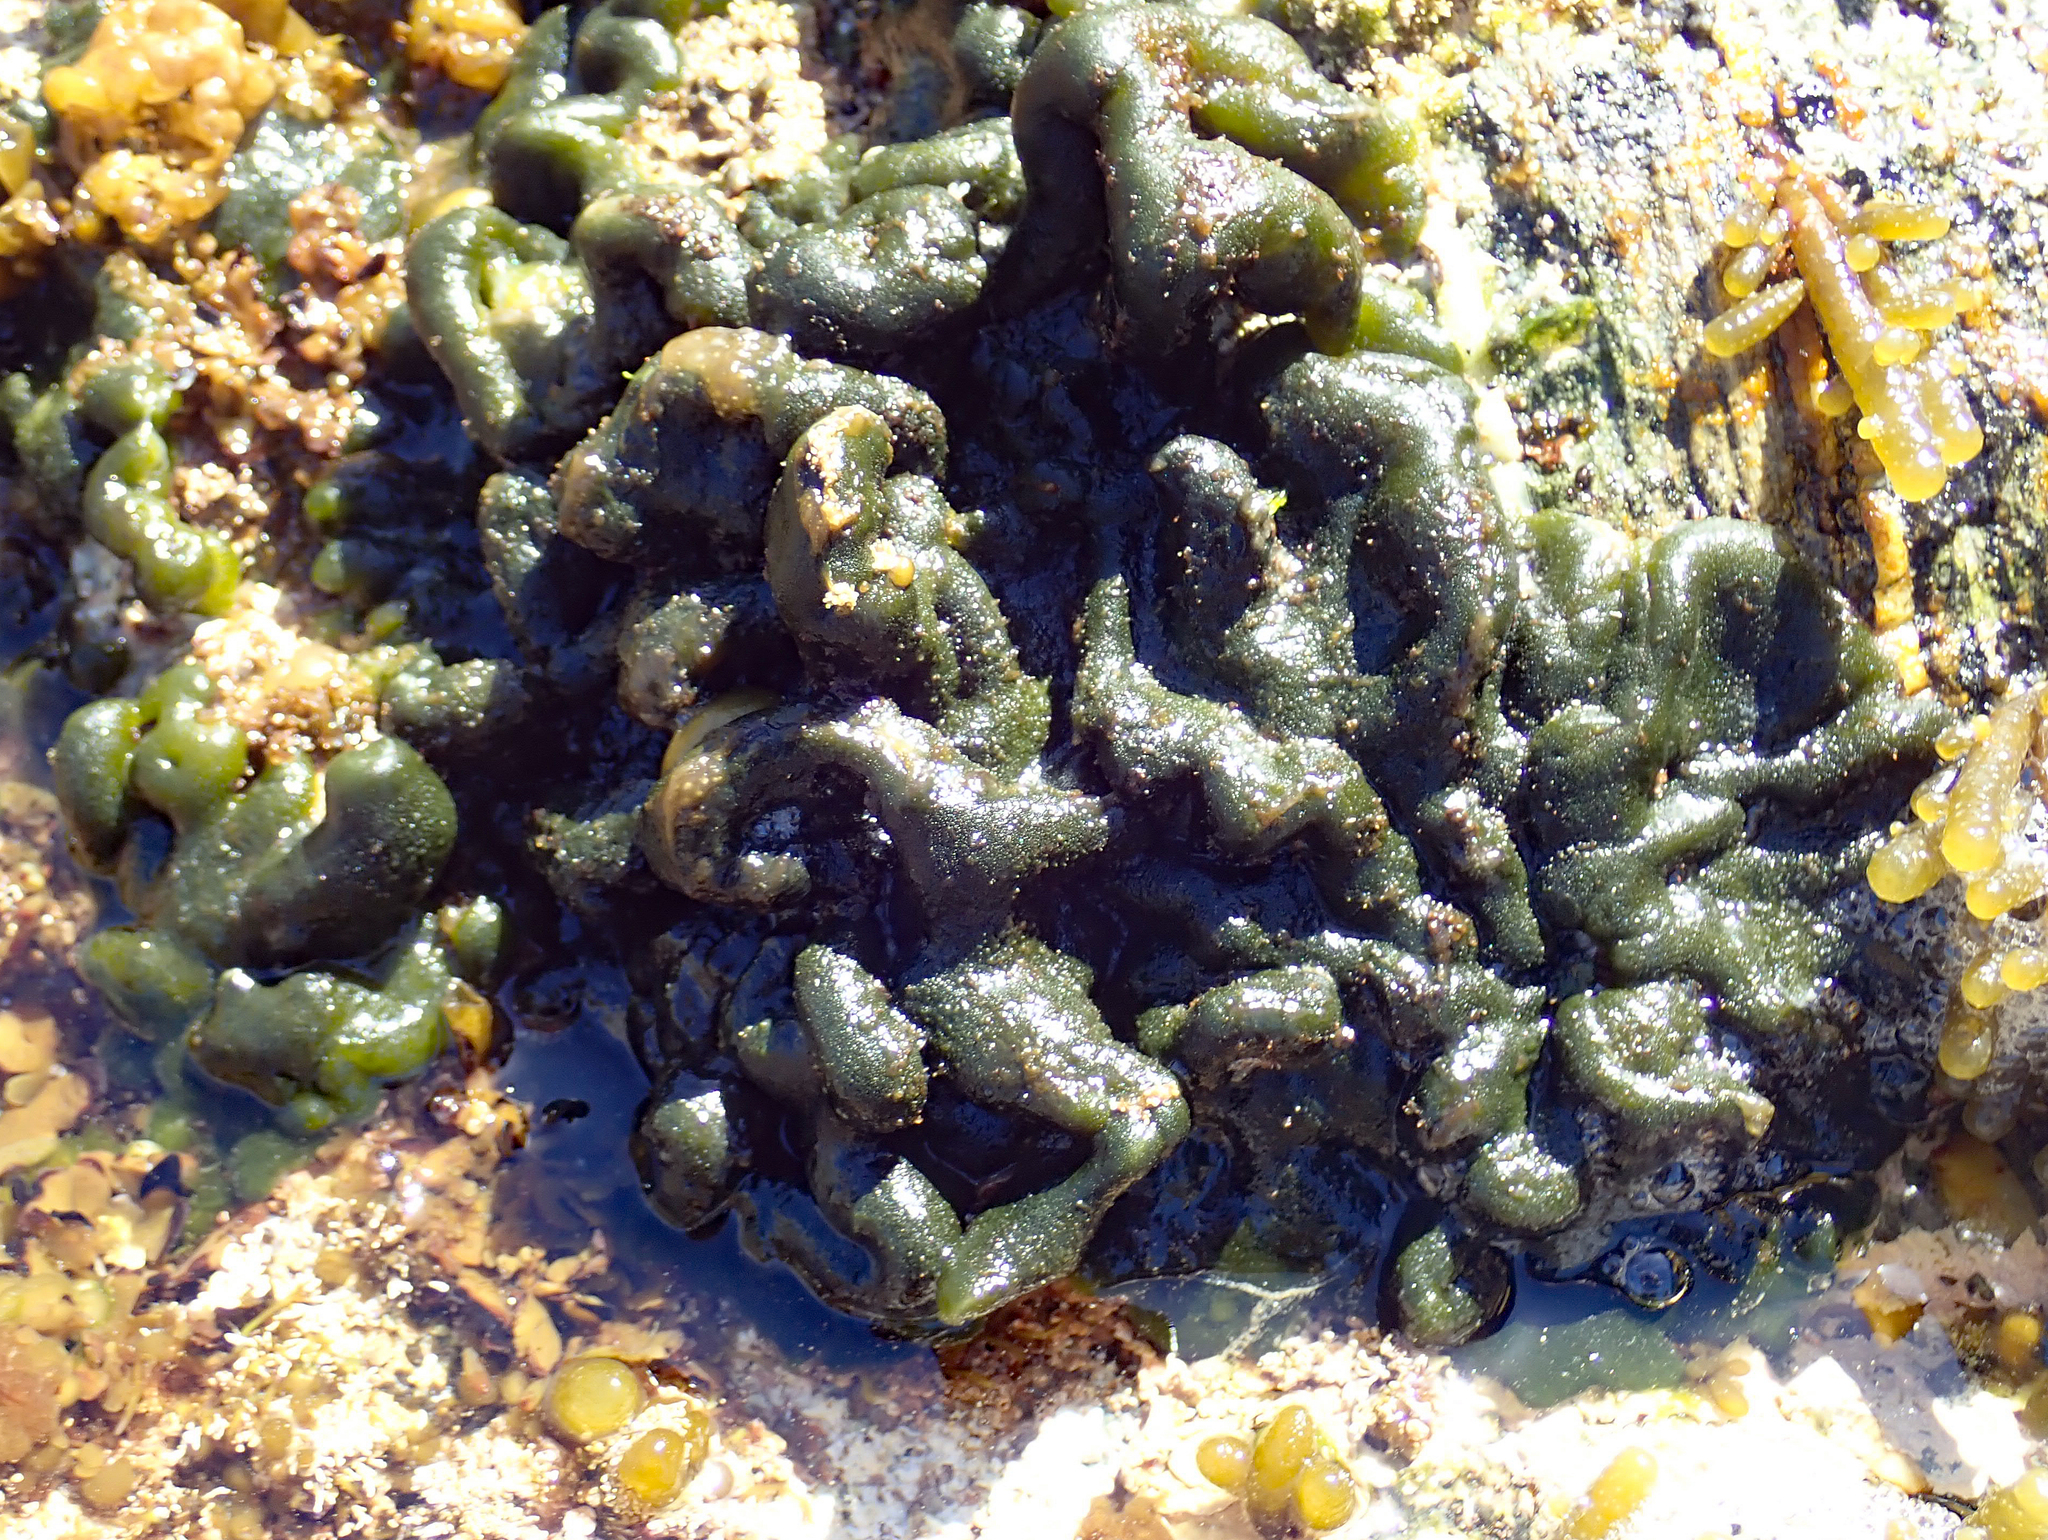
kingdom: Plantae
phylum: Chlorophyta
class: Ulvophyceae
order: Bryopsidales
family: Codiaceae
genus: Codium
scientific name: Codium convolutum
